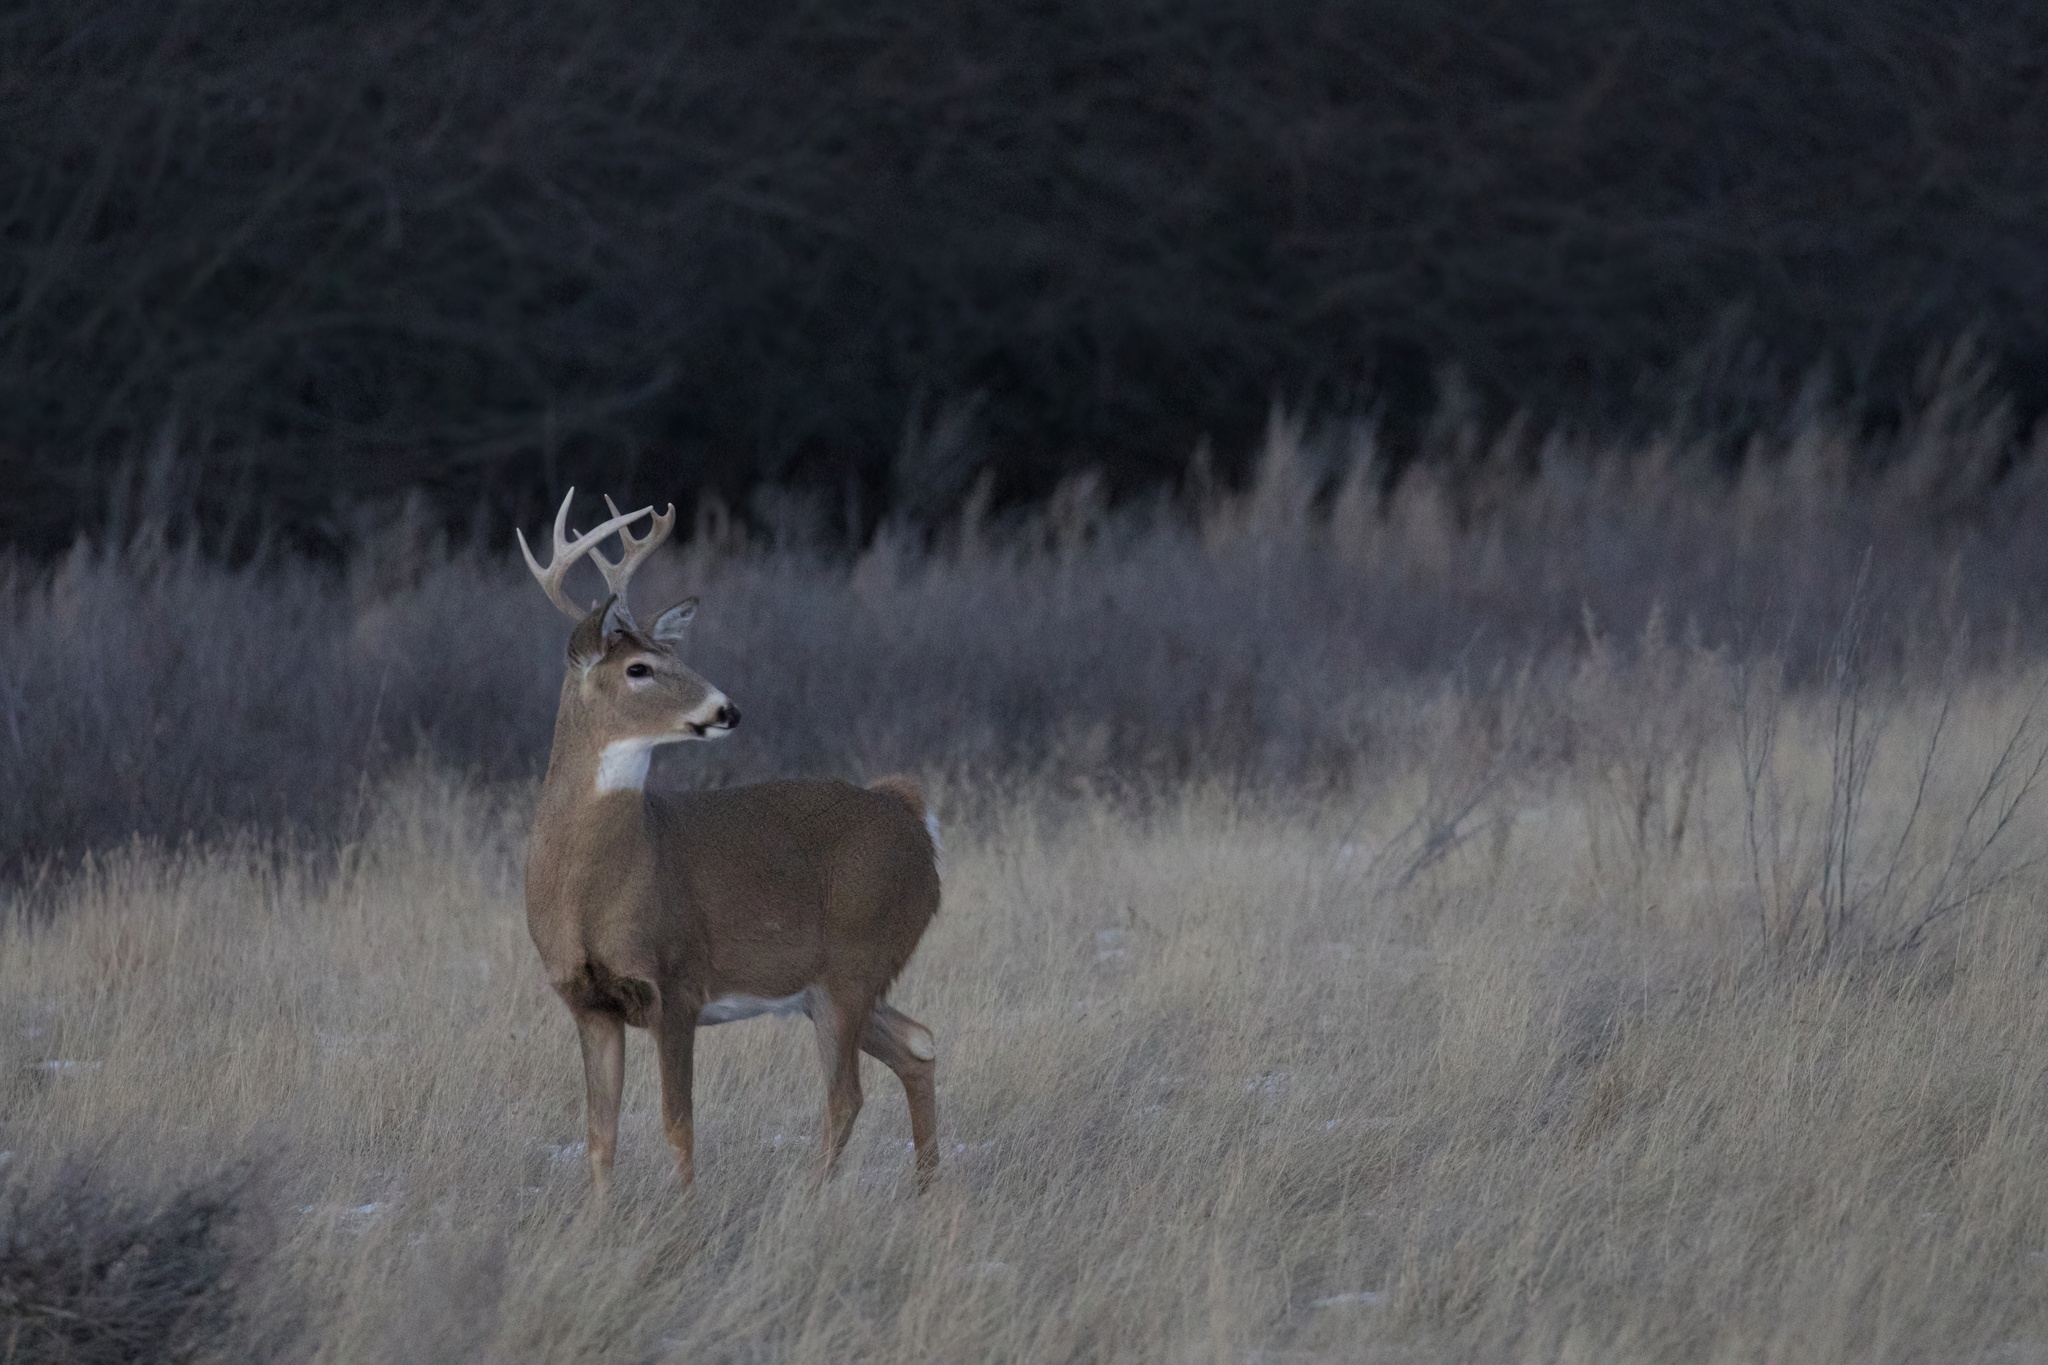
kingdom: Animalia
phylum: Chordata
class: Mammalia
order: Artiodactyla
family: Cervidae
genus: Odocoileus
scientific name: Odocoileus virginianus
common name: White-tailed deer
